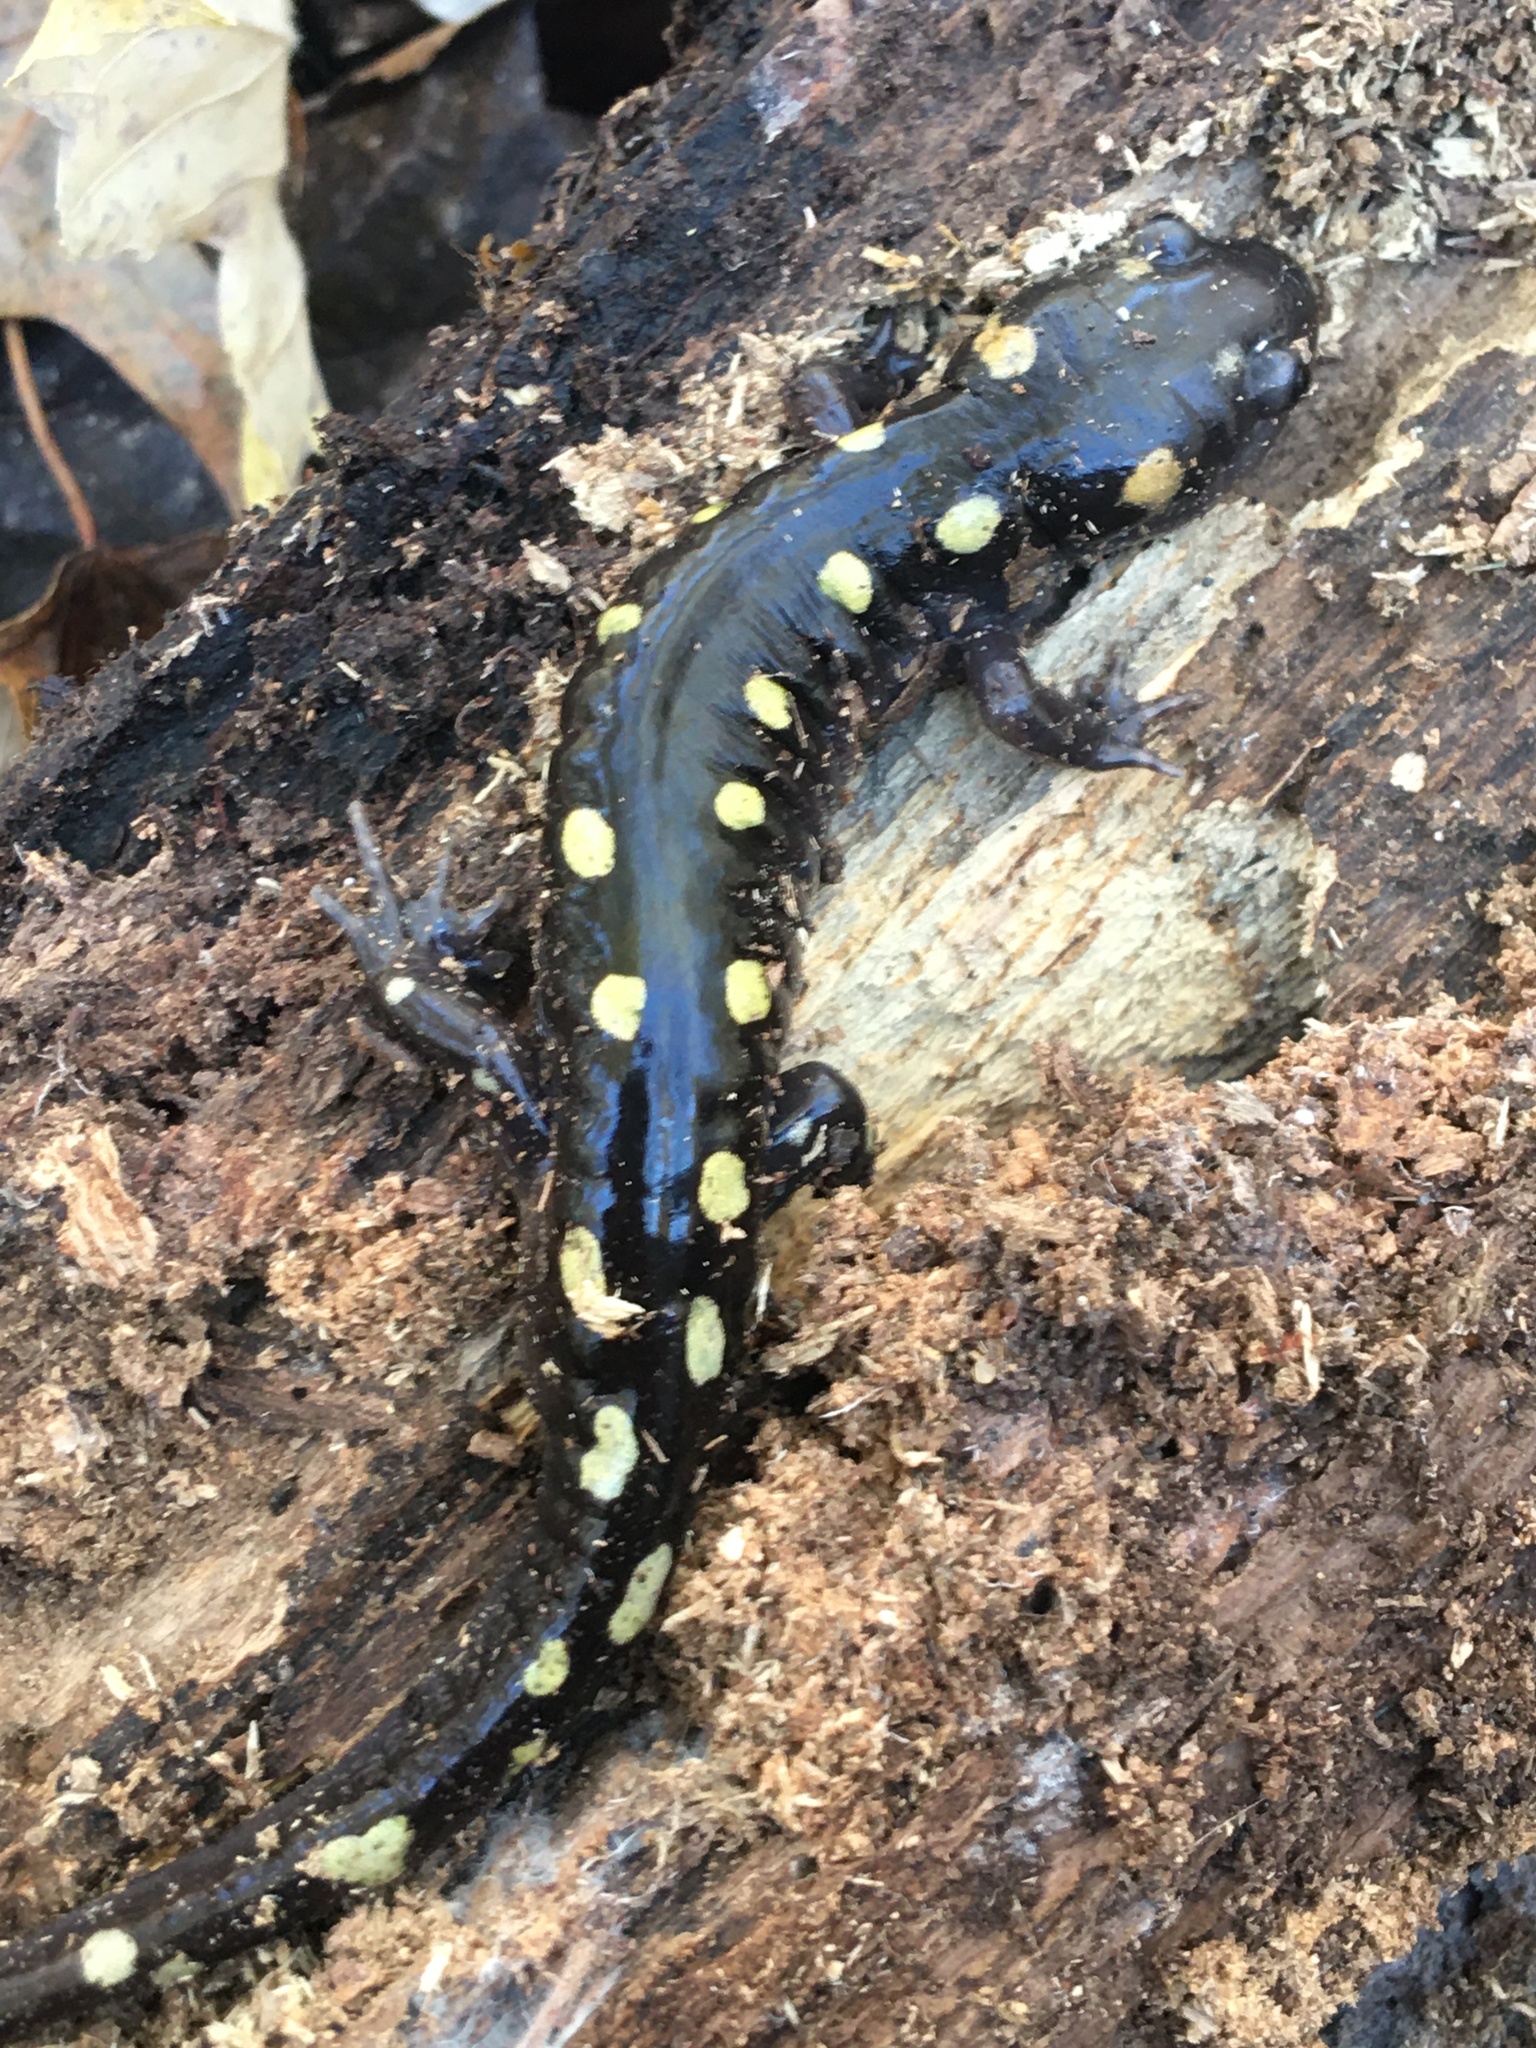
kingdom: Animalia
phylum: Chordata
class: Amphibia
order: Caudata
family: Ambystomatidae
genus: Ambystoma
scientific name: Ambystoma maculatum
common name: Spotted salamander
